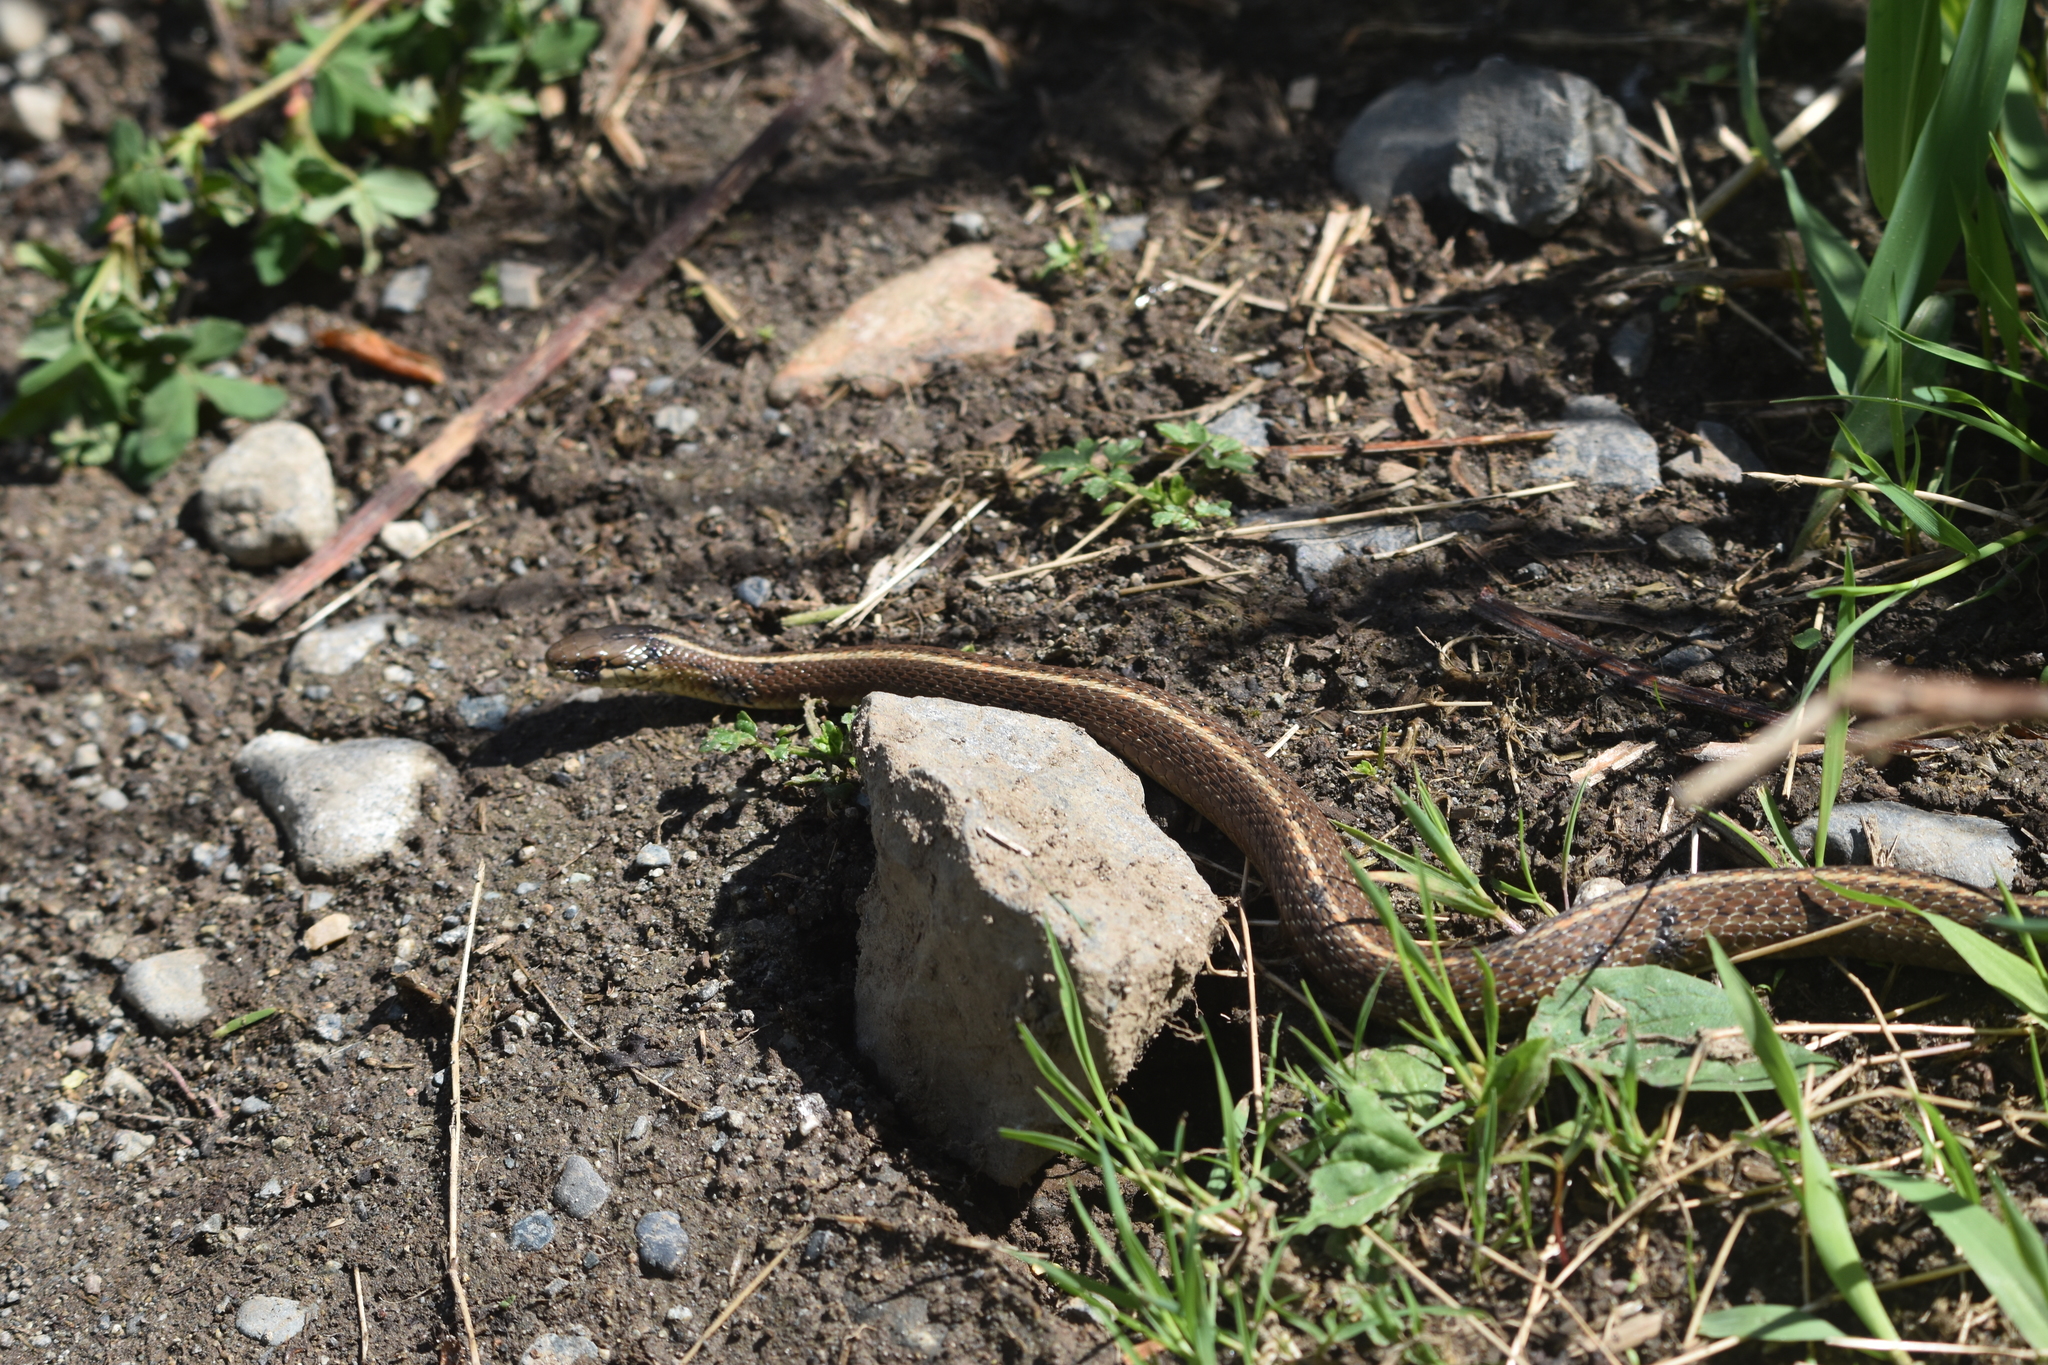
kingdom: Animalia
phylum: Chordata
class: Squamata
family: Colubridae
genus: Thamnophis
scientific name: Thamnophis ordinoides
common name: Northwestern garter snake
